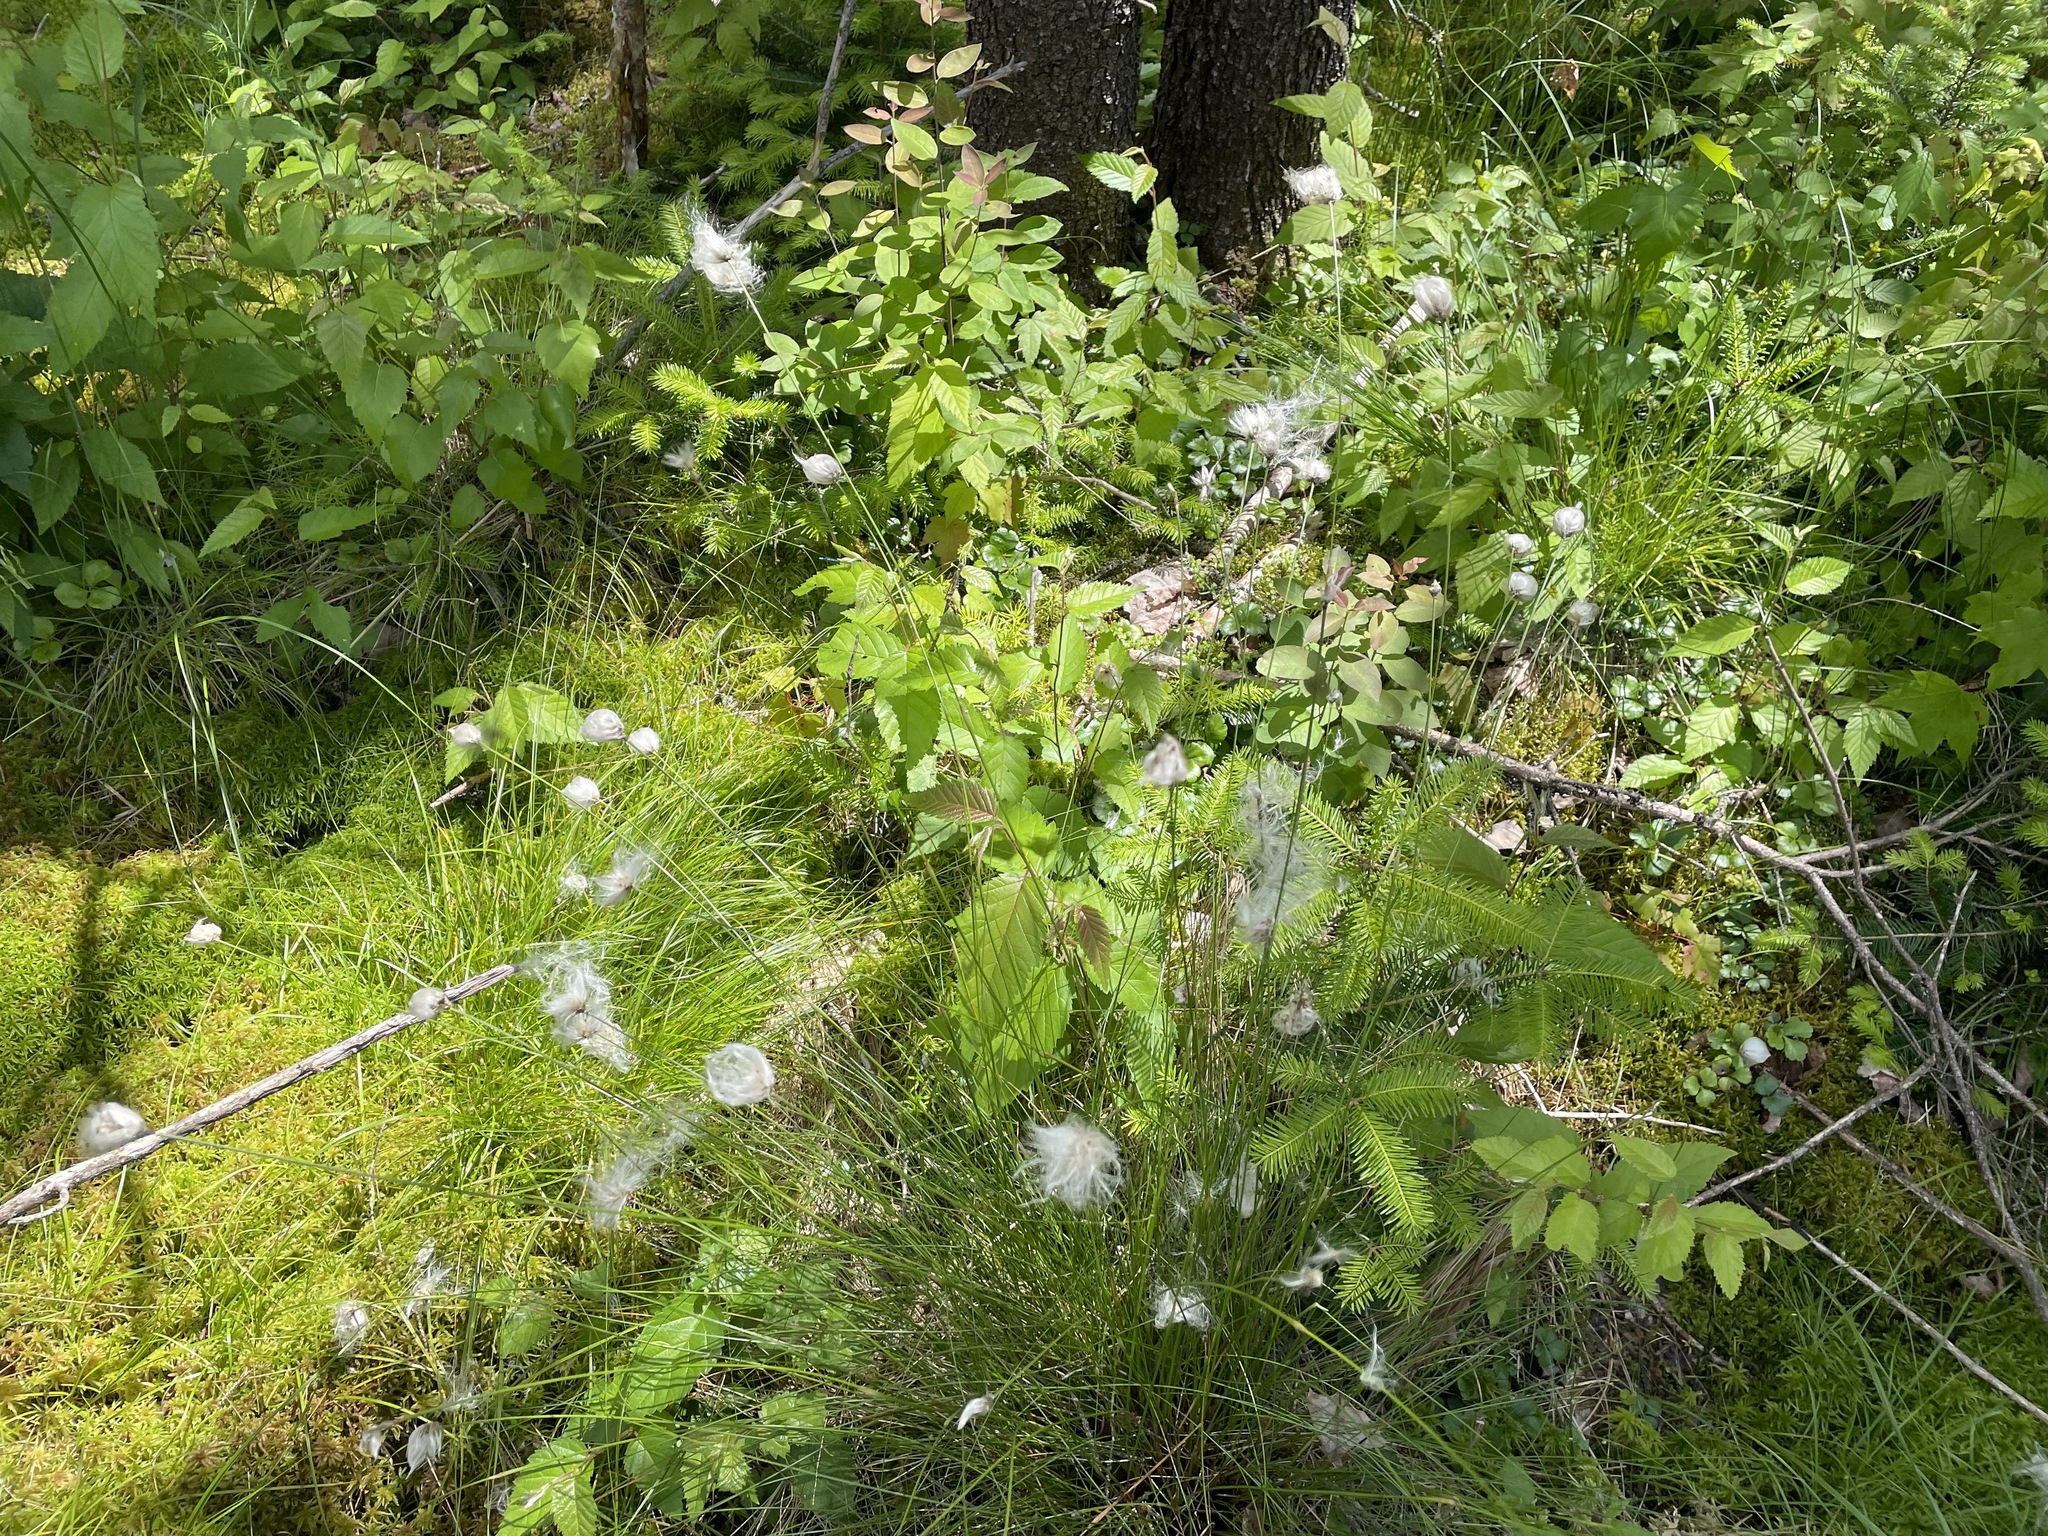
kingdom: Plantae
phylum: Tracheophyta
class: Liliopsida
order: Poales
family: Cyperaceae
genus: Eriophorum
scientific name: Eriophorum vaginatum
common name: Hare's-tail cottongrass
